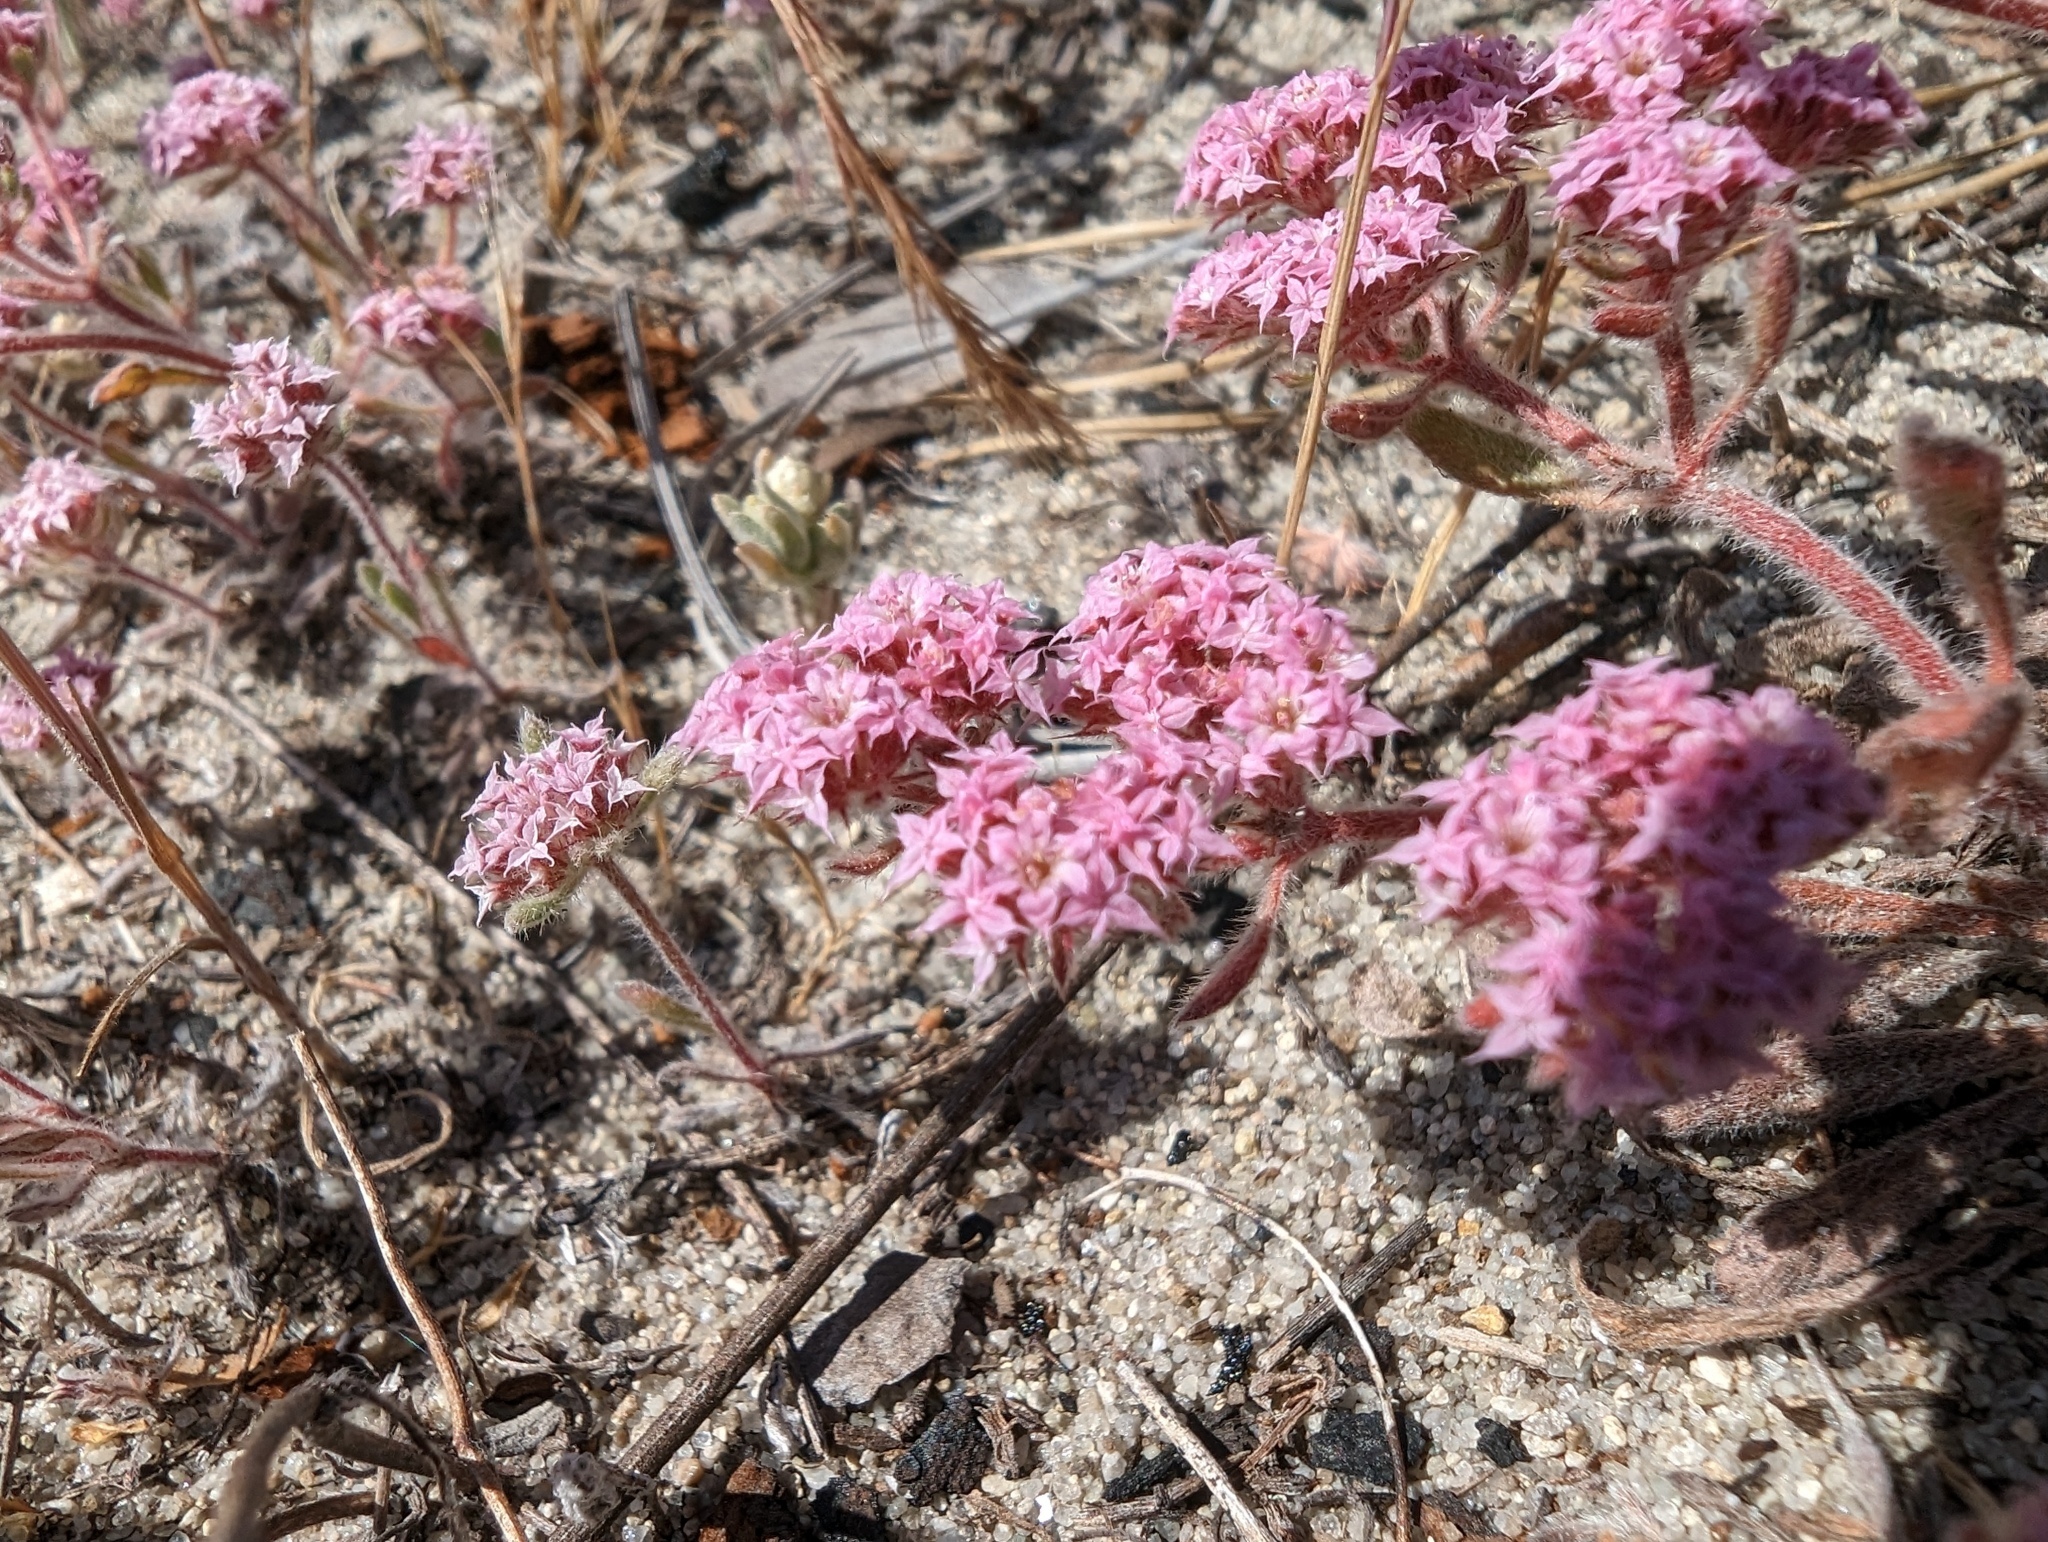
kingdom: Plantae
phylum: Tracheophyta
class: Magnoliopsida
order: Caryophyllales
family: Polygonaceae
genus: Chorizanthe
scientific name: Chorizanthe pungens
